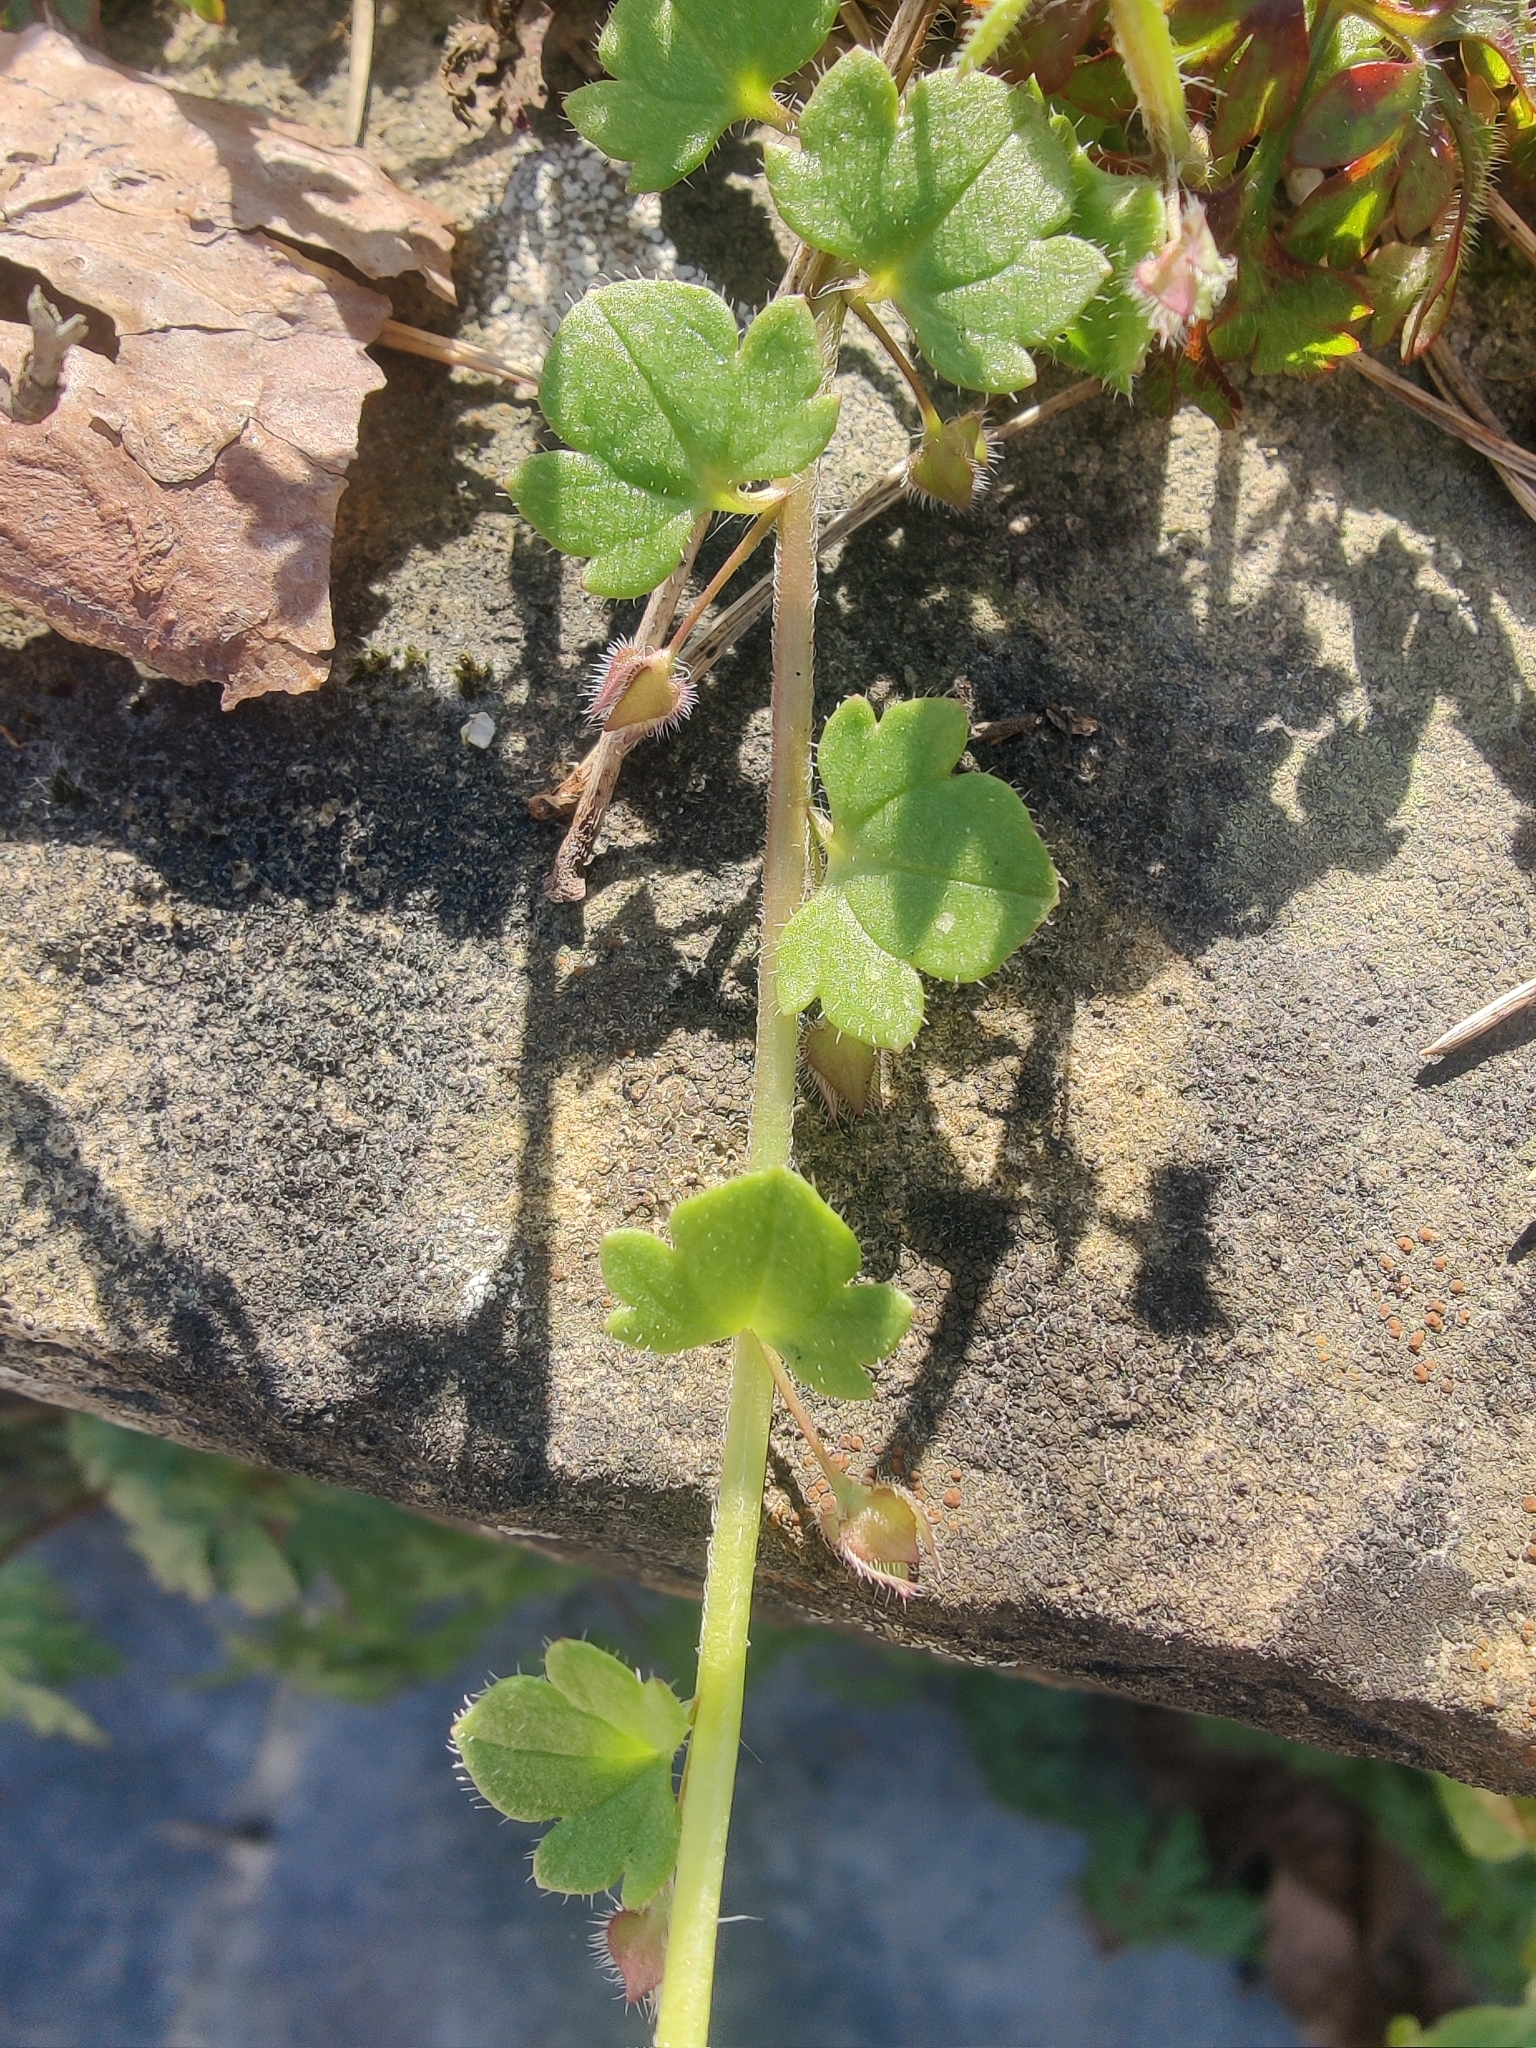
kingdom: Plantae
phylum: Tracheophyta
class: Magnoliopsida
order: Lamiales
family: Plantaginaceae
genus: Veronica
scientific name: Veronica hederifolia
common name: Ivy-leaved speedwell
